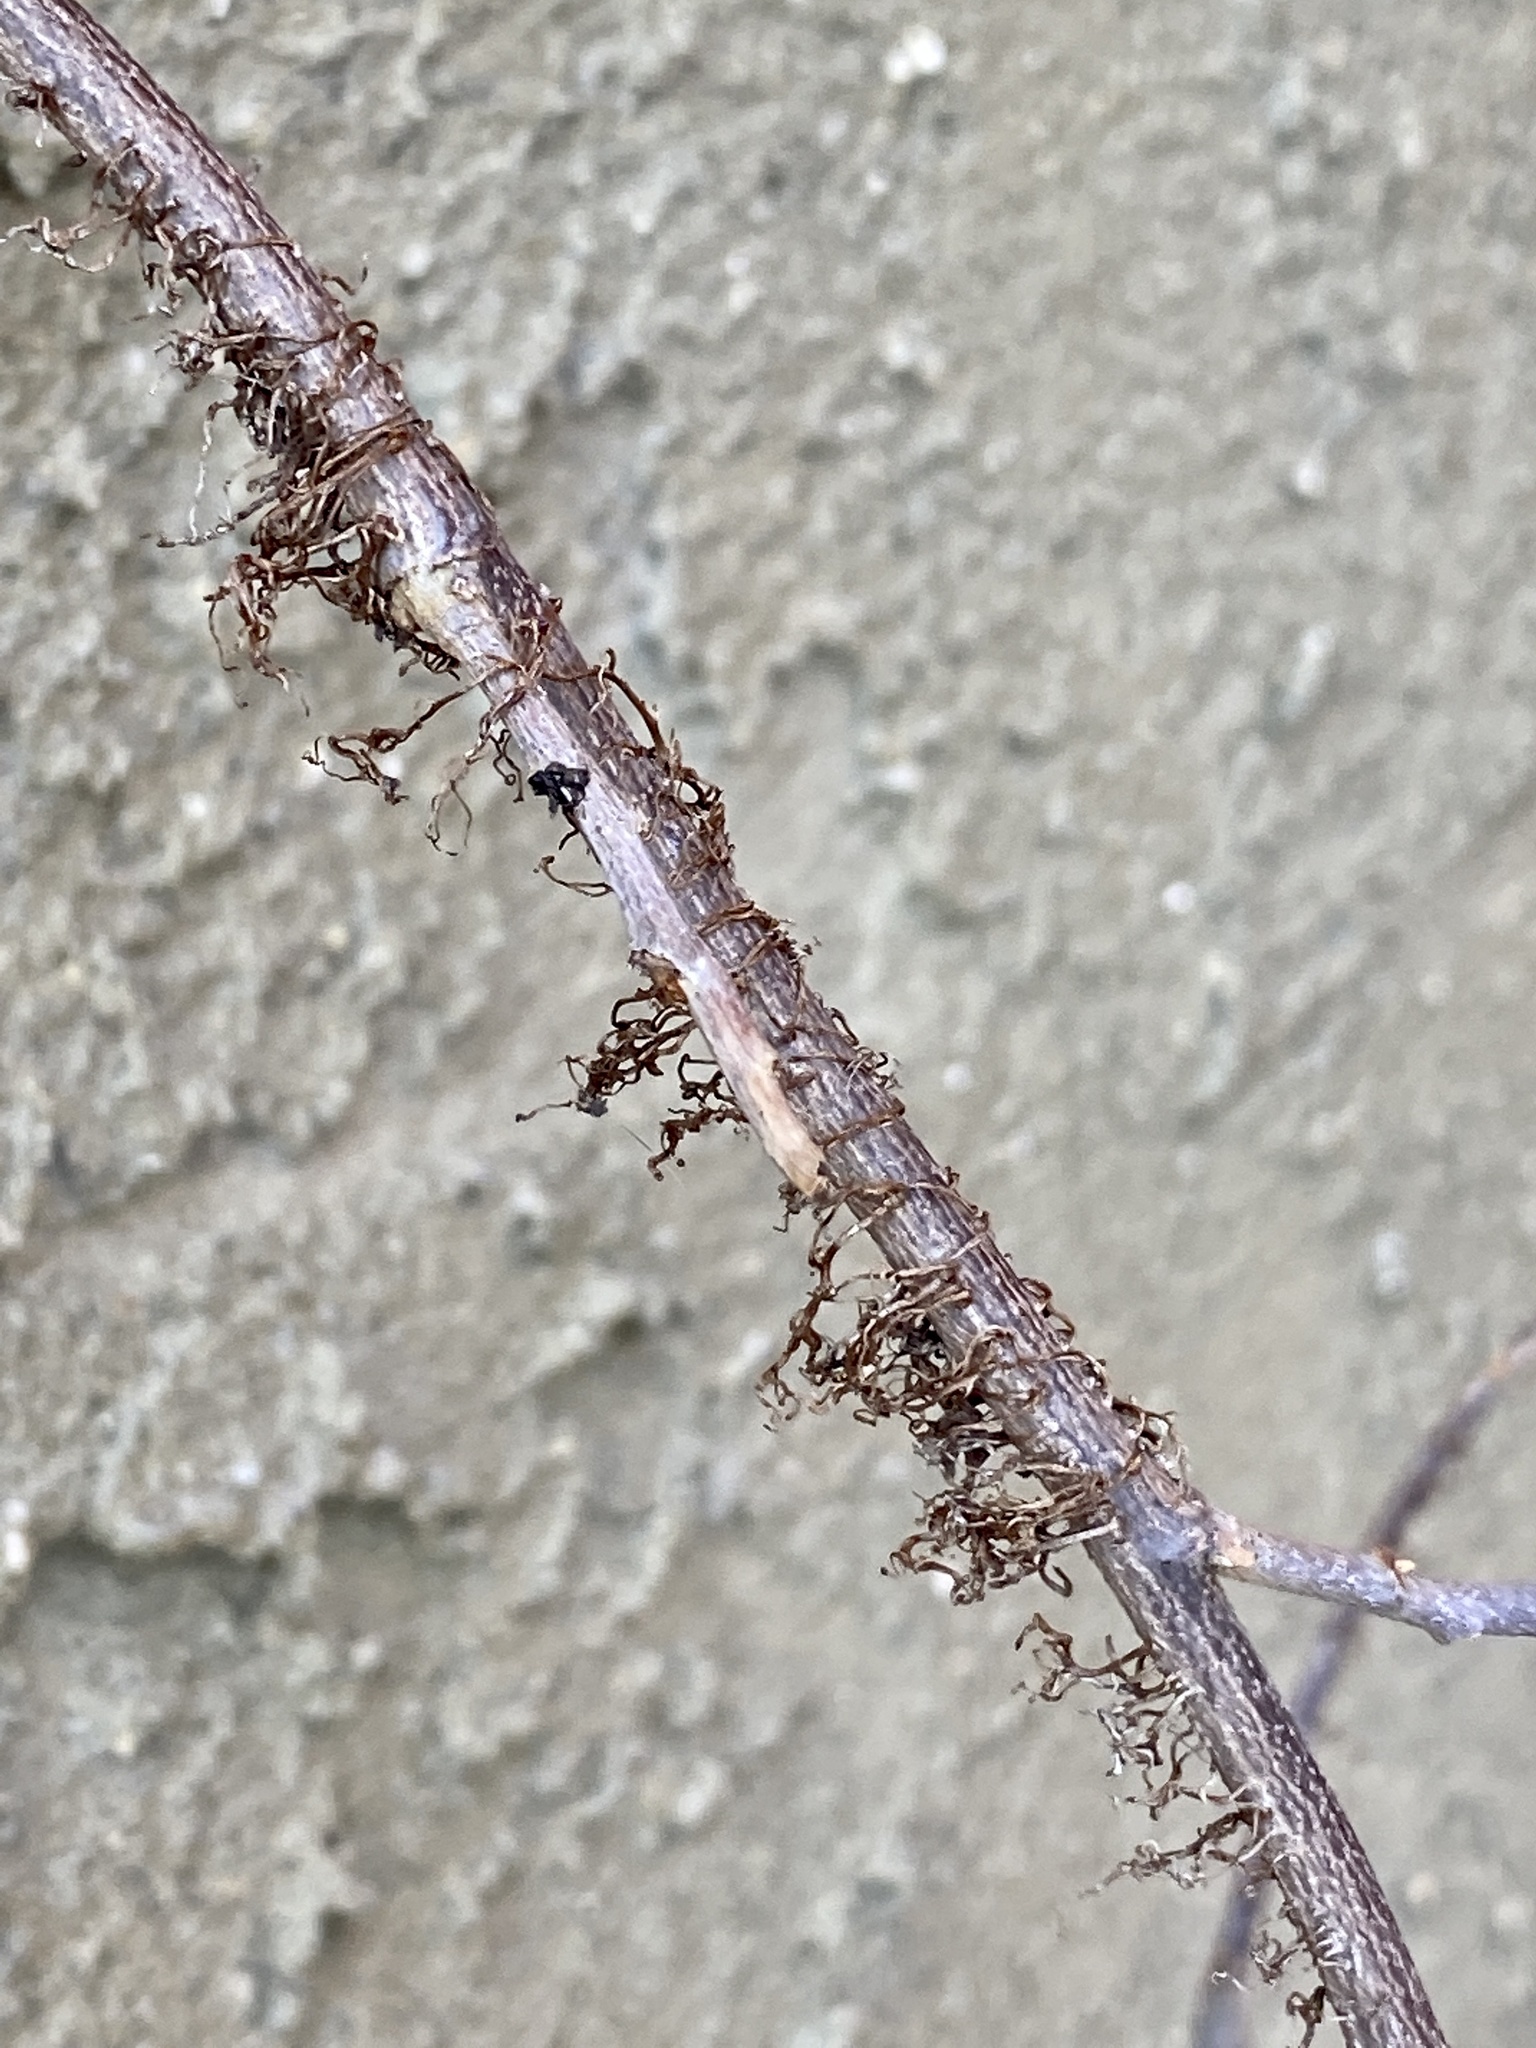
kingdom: Plantae
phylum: Tracheophyta
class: Magnoliopsida
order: Sapindales
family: Anacardiaceae
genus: Toxicodendron
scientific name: Toxicodendron radicans
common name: Poison ivy
